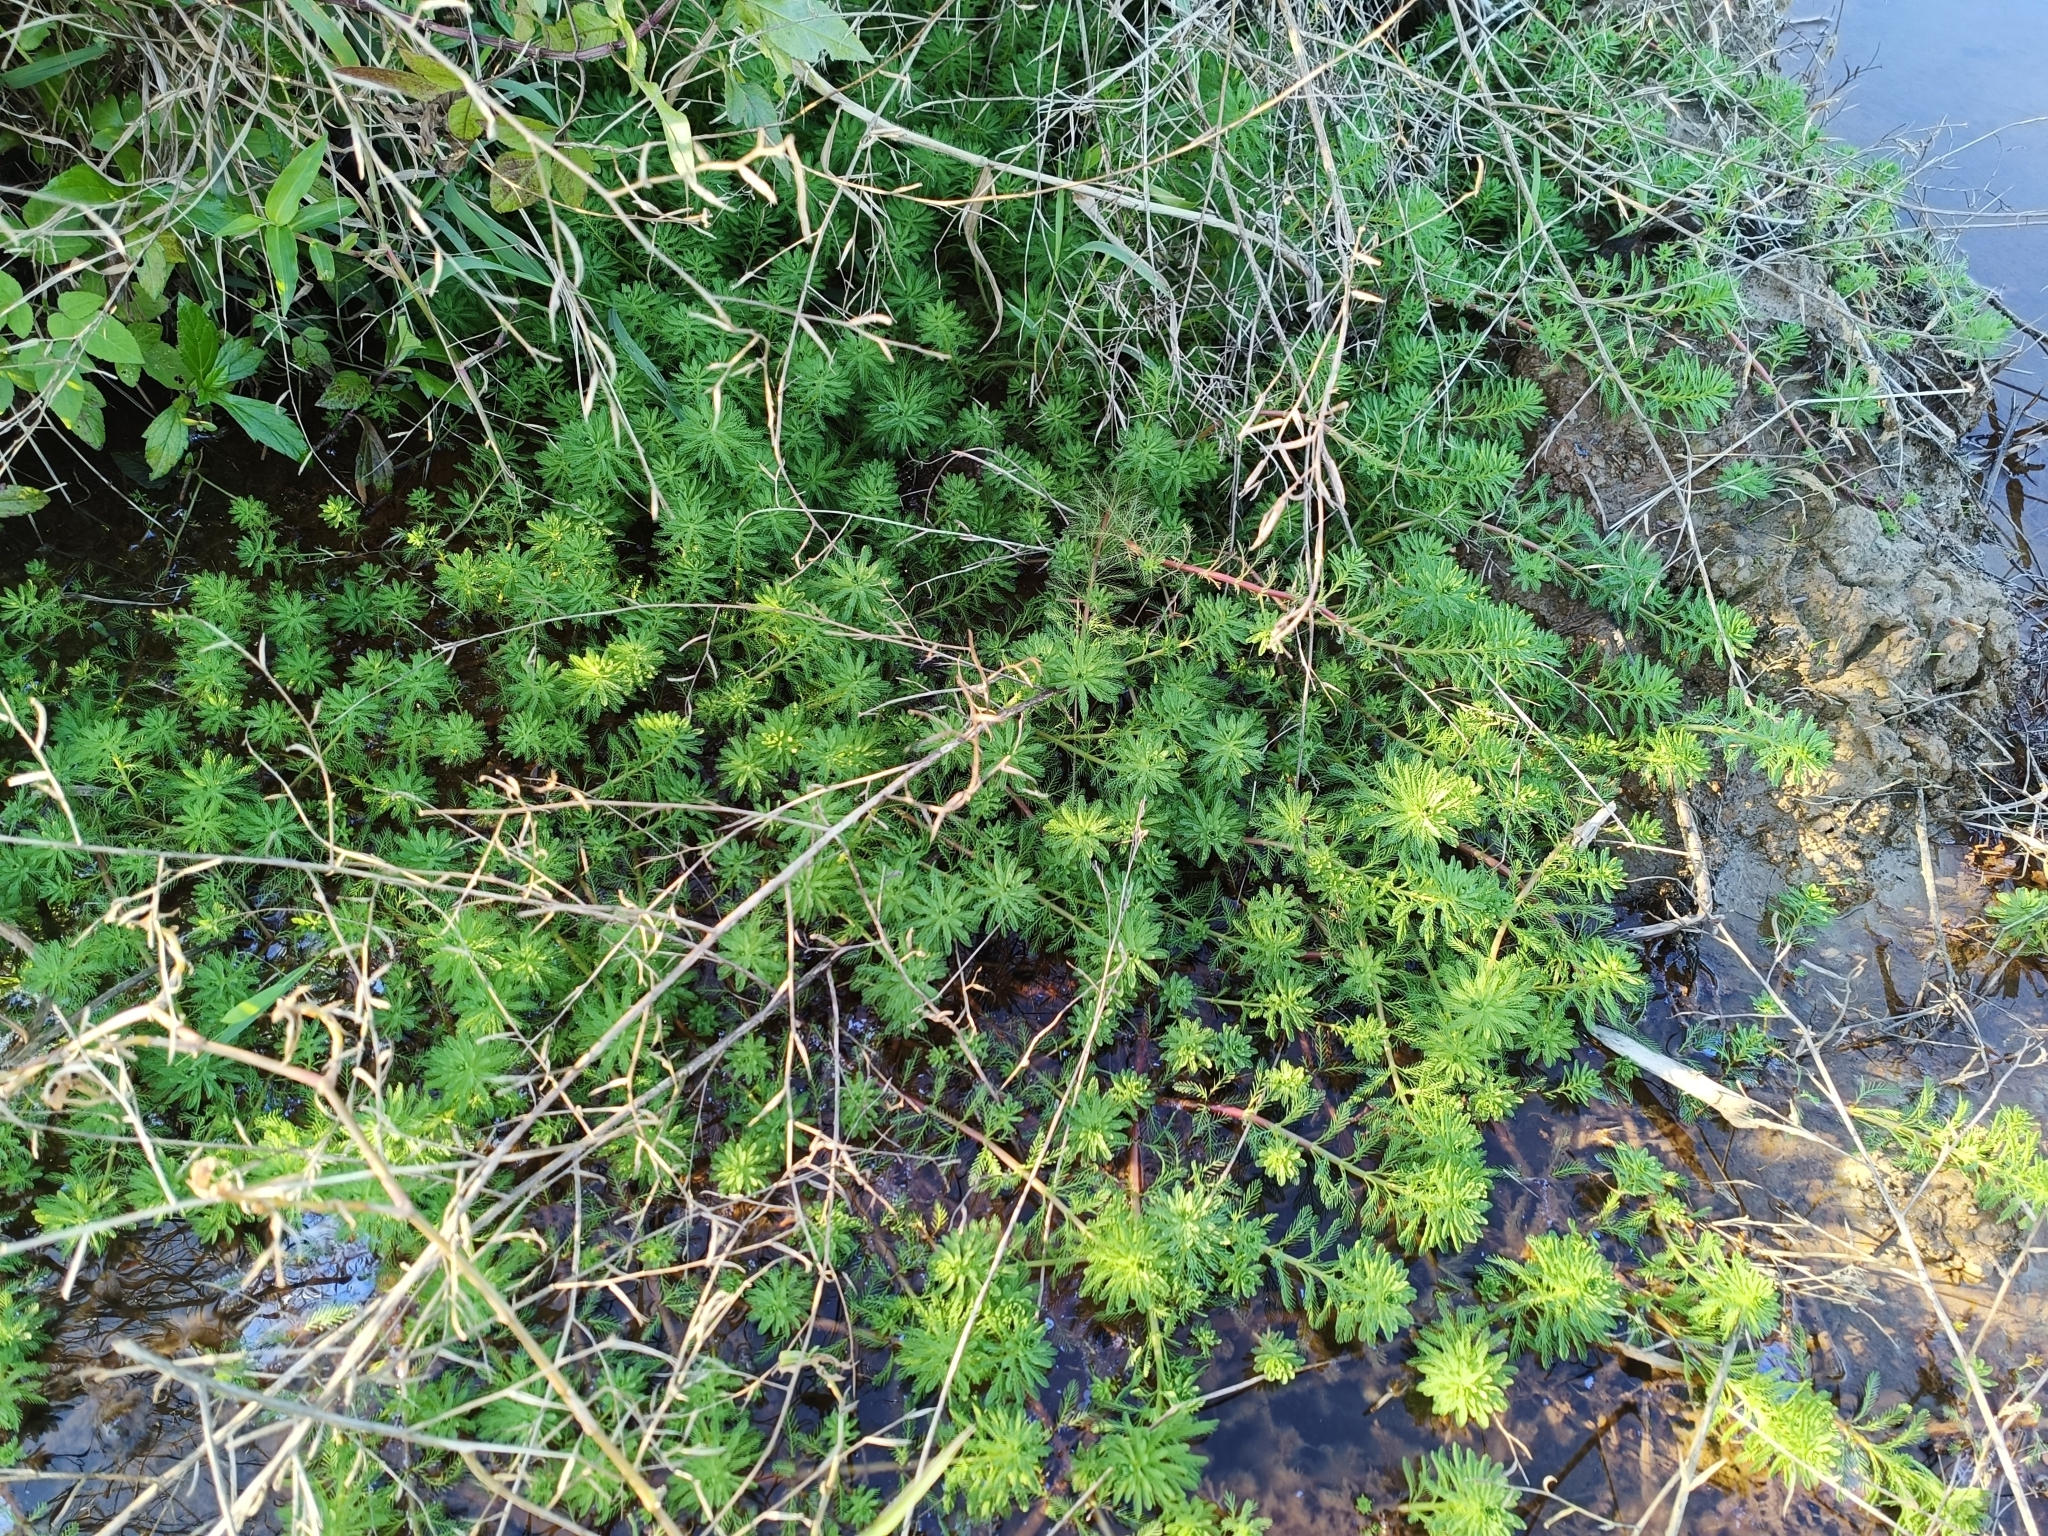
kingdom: Plantae
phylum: Tracheophyta
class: Magnoliopsida
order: Saxifragales
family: Haloragaceae
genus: Myriophyllum
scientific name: Myriophyllum aquaticum
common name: Parrot's feather
